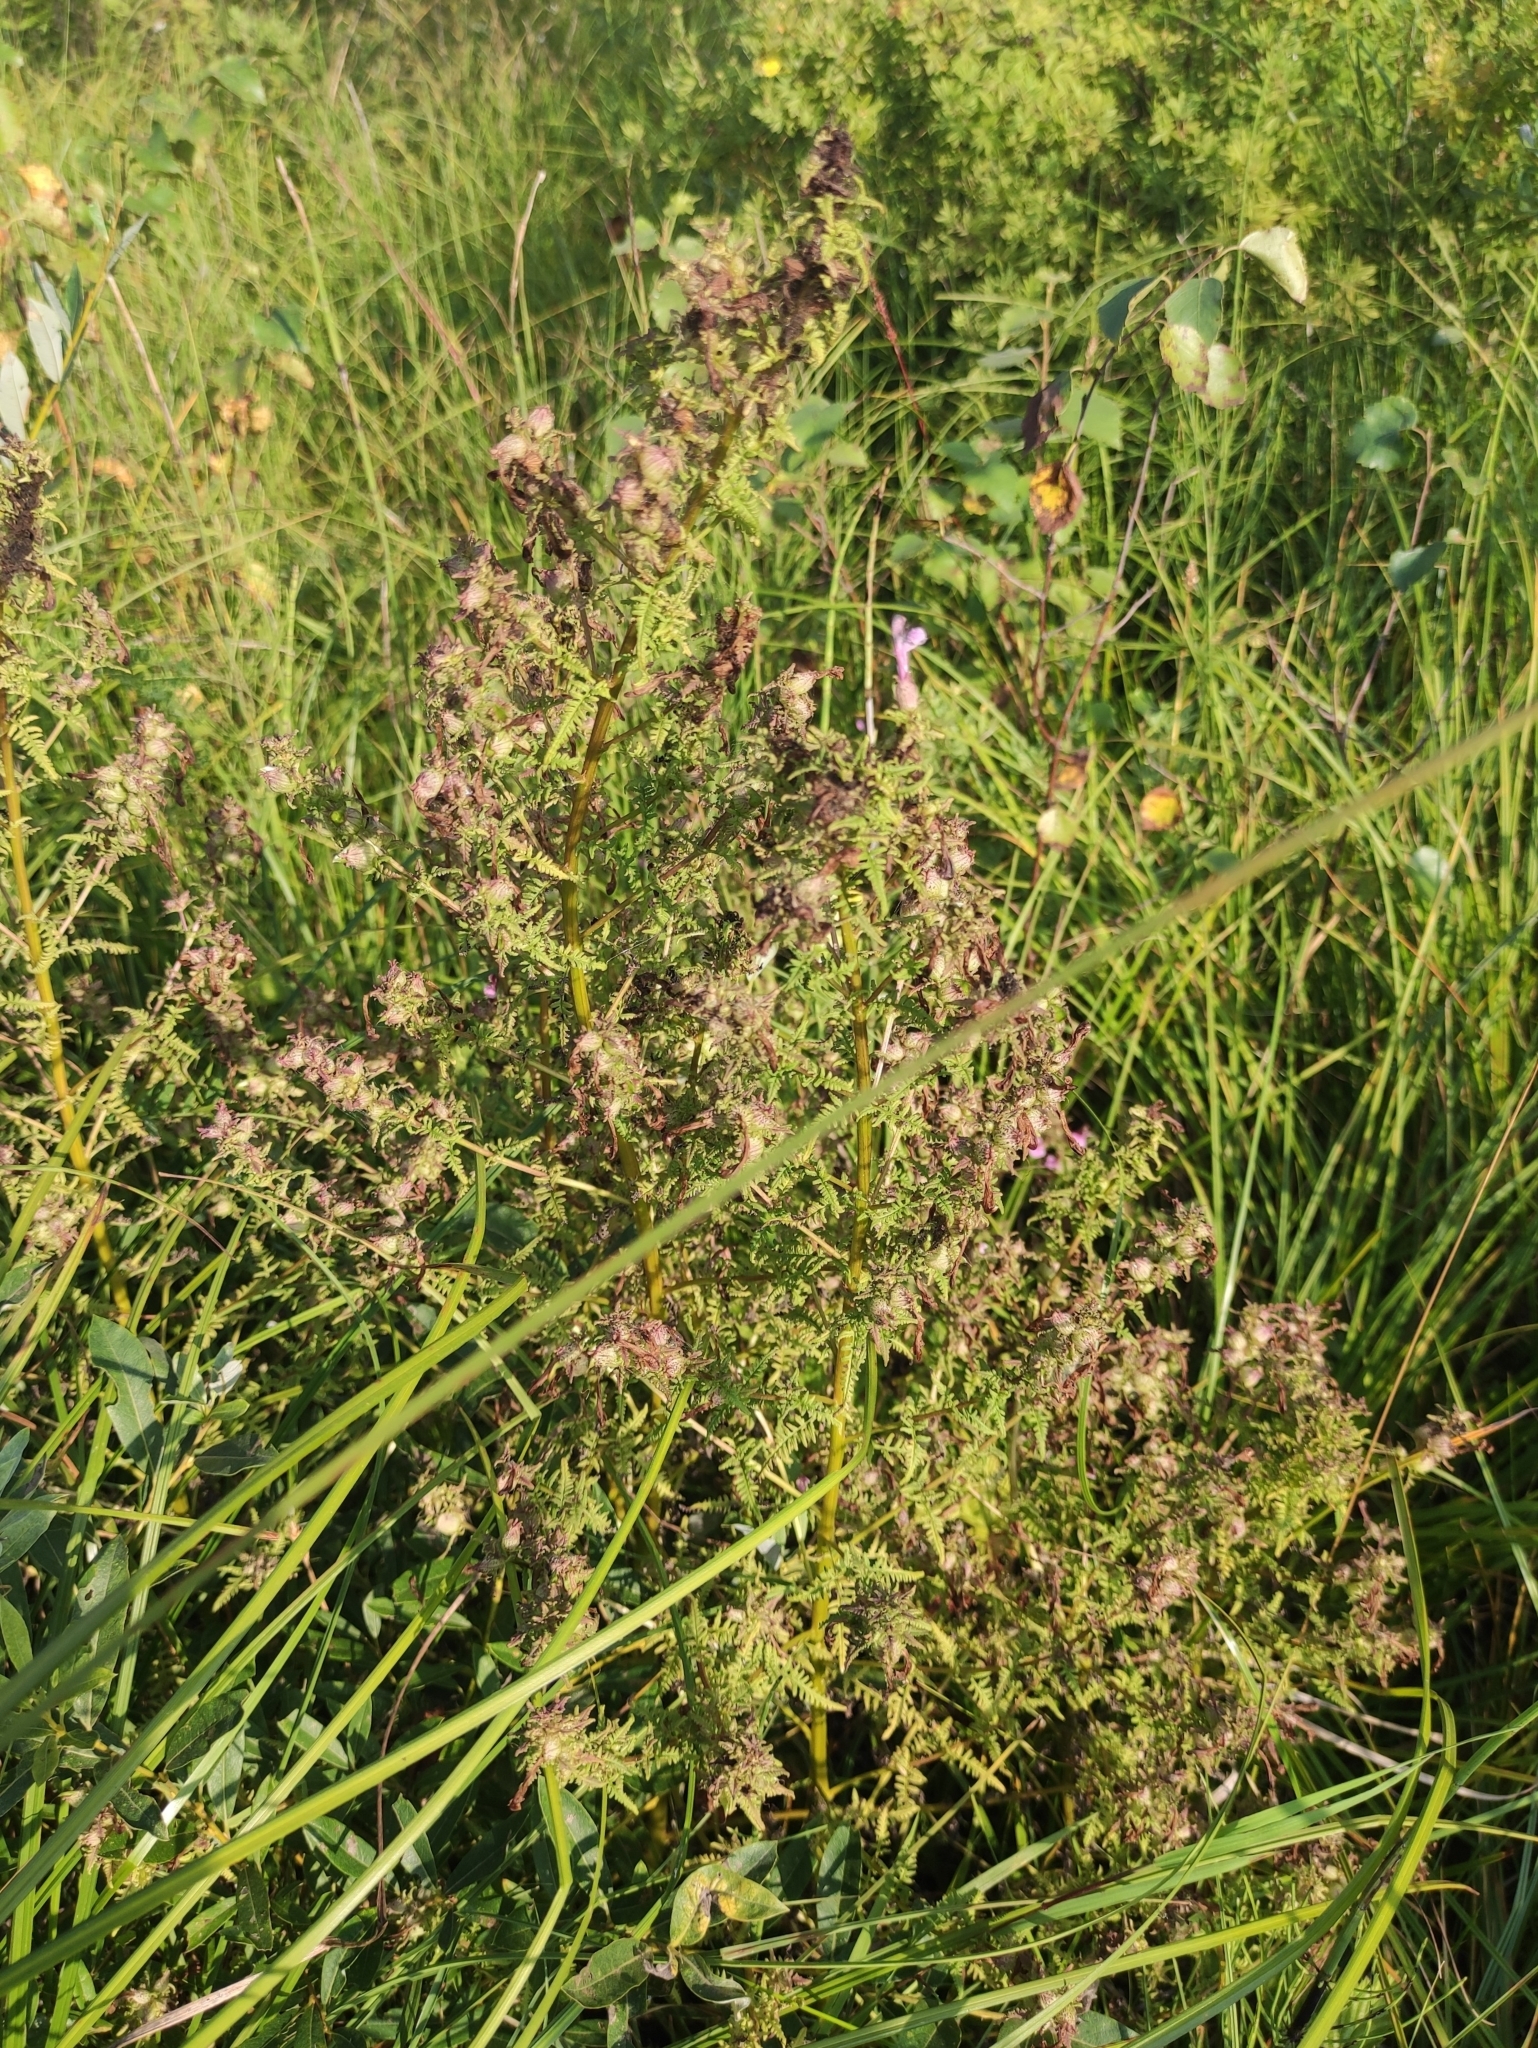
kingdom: Plantae
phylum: Tracheophyta
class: Magnoliopsida
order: Lamiales
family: Orobanchaceae
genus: Pedicularis
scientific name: Pedicularis karoi
